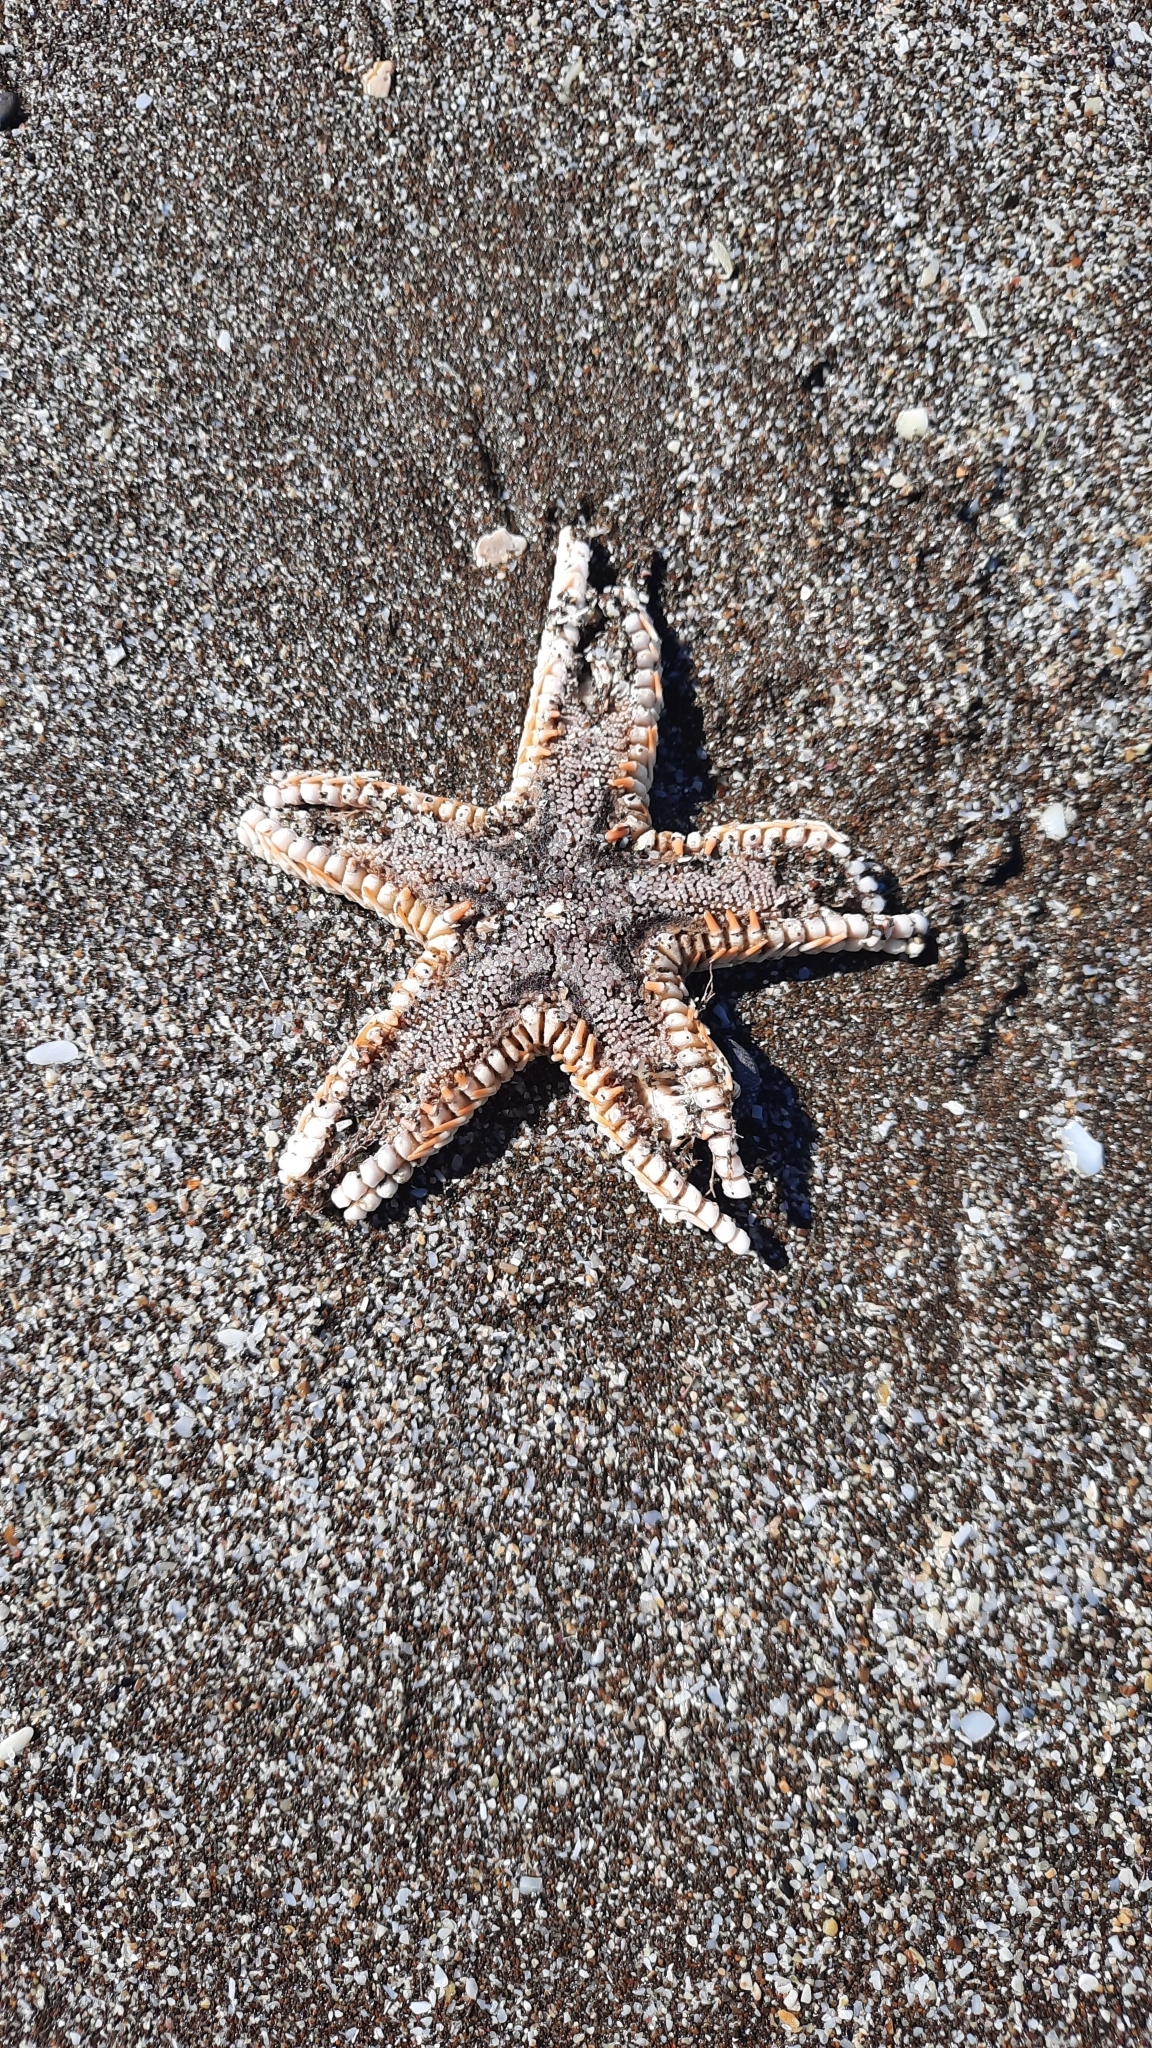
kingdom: Animalia
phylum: Echinodermata
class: Asteroidea
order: Paxillosida
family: Astropectinidae
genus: Astropecten
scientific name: Astropecten polyacanthus
